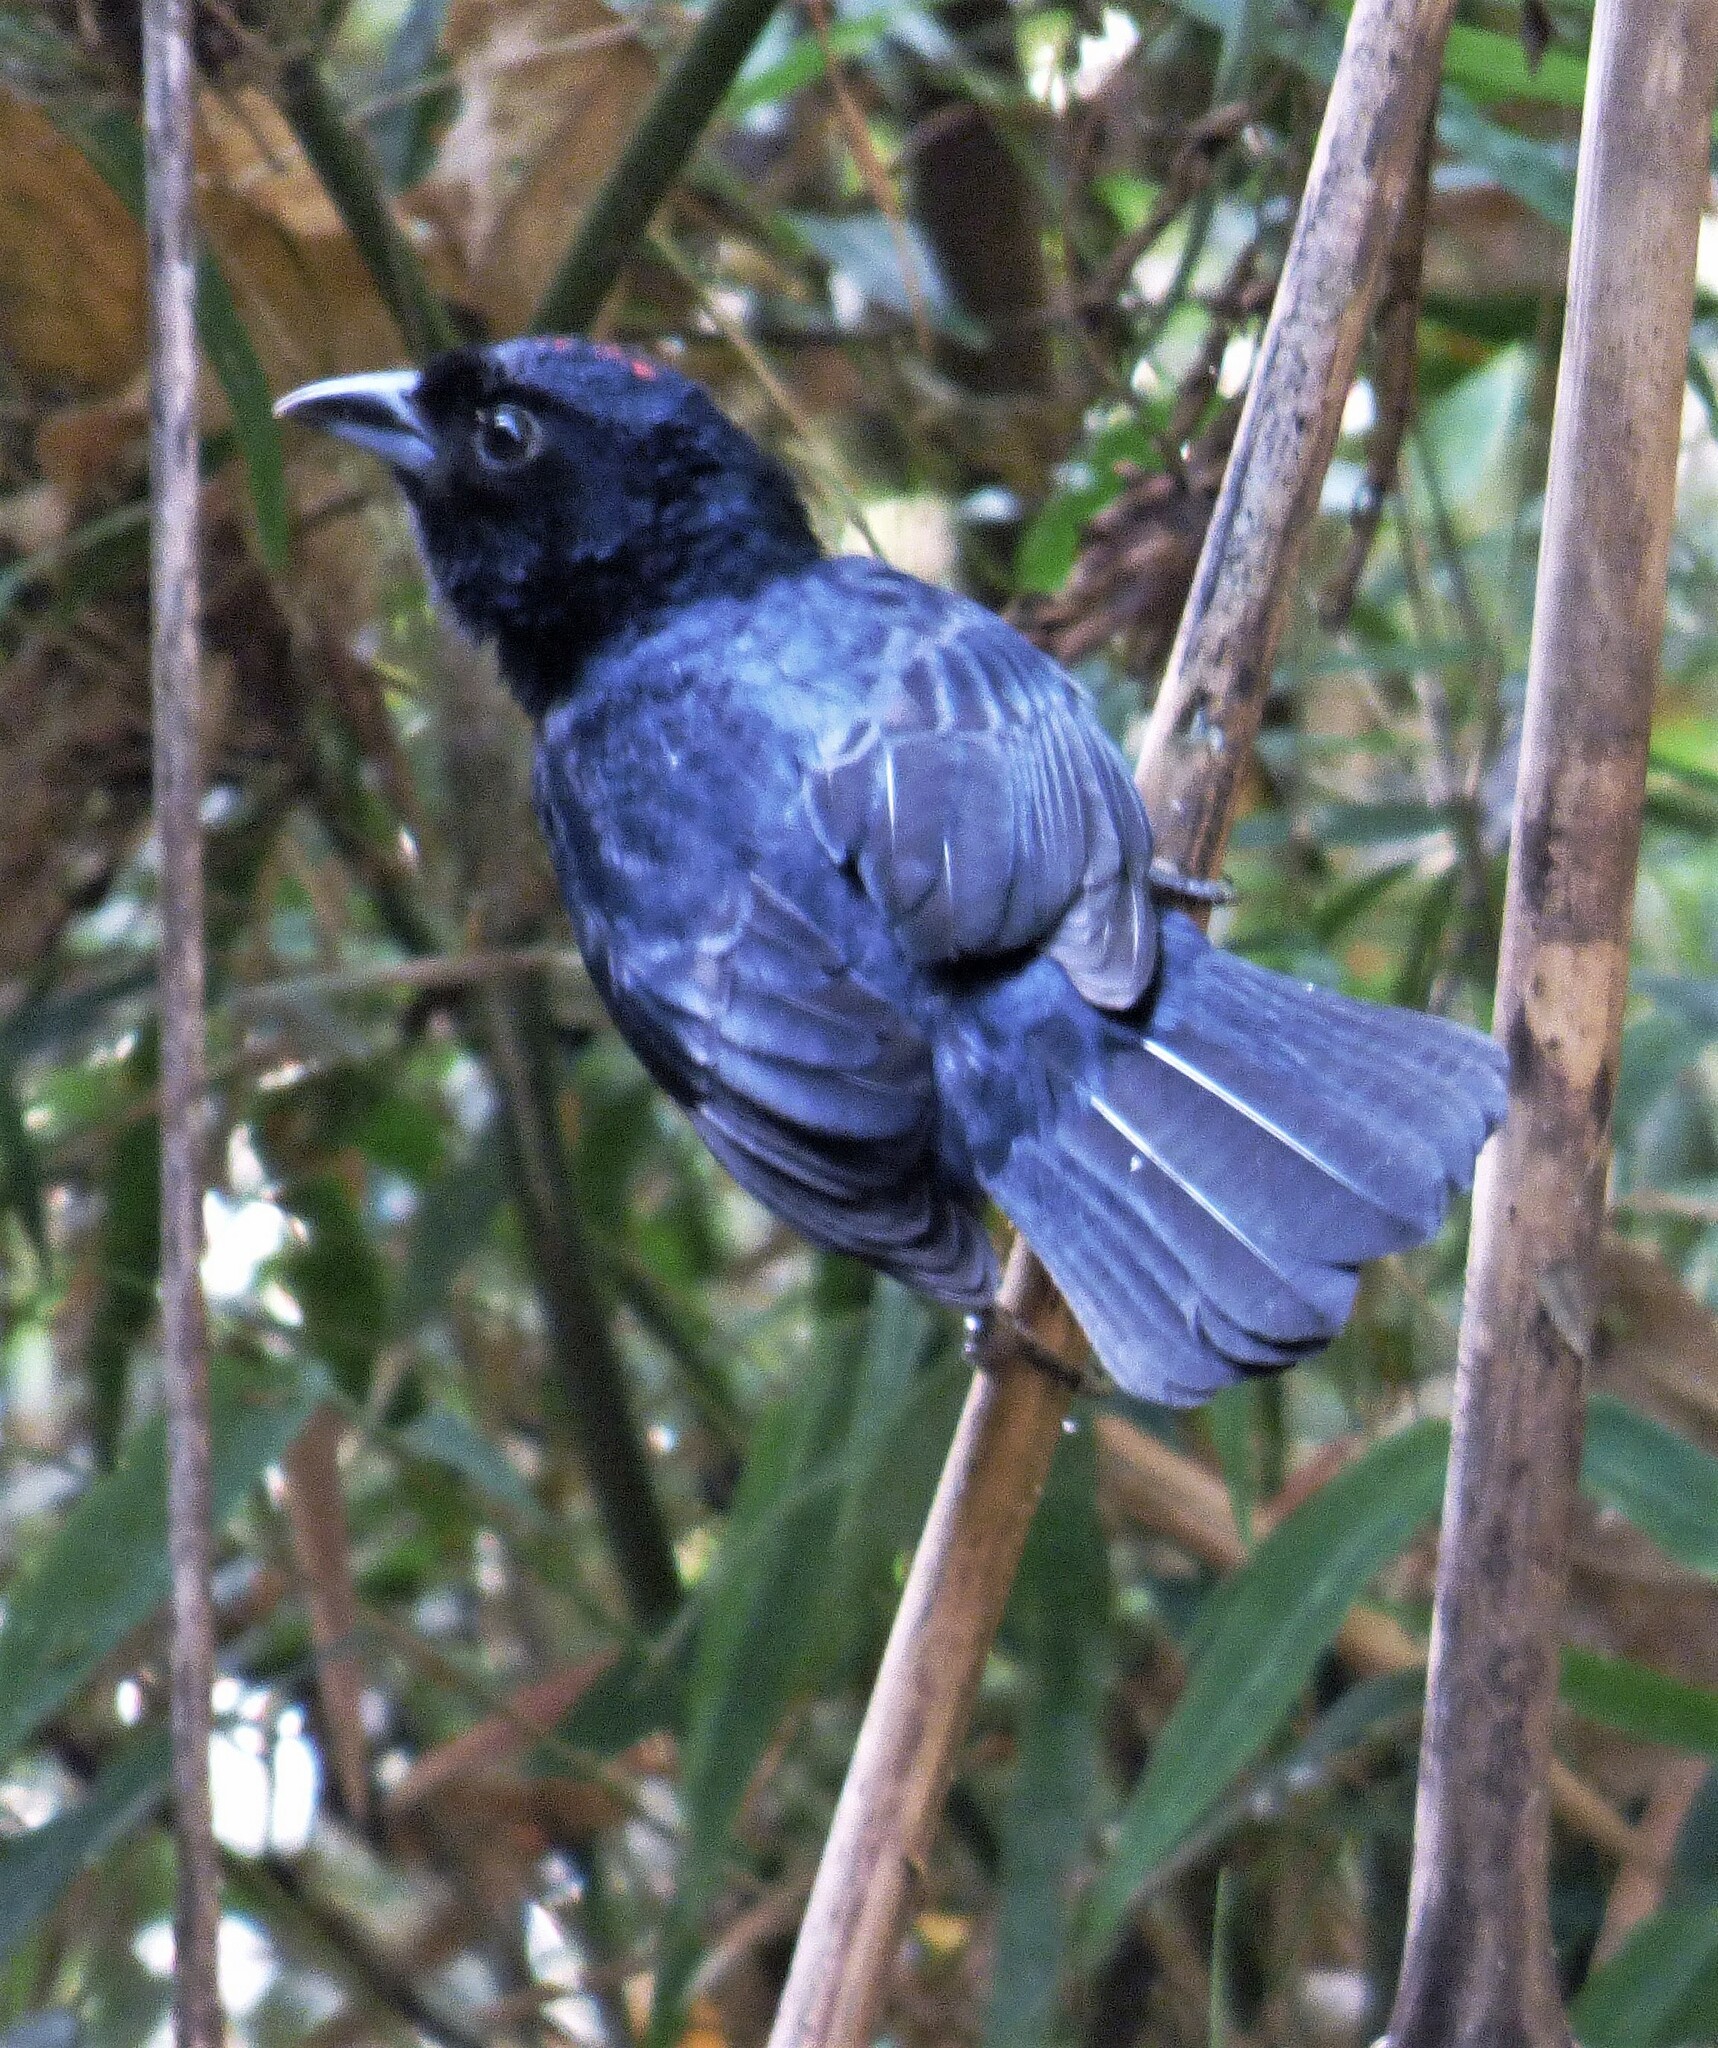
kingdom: Animalia
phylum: Chordata
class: Aves
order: Passeriformes
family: Thraupidae
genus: Tachyphonus
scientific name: Tachyphonus coronatus
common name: Ruby-crowned tanager
